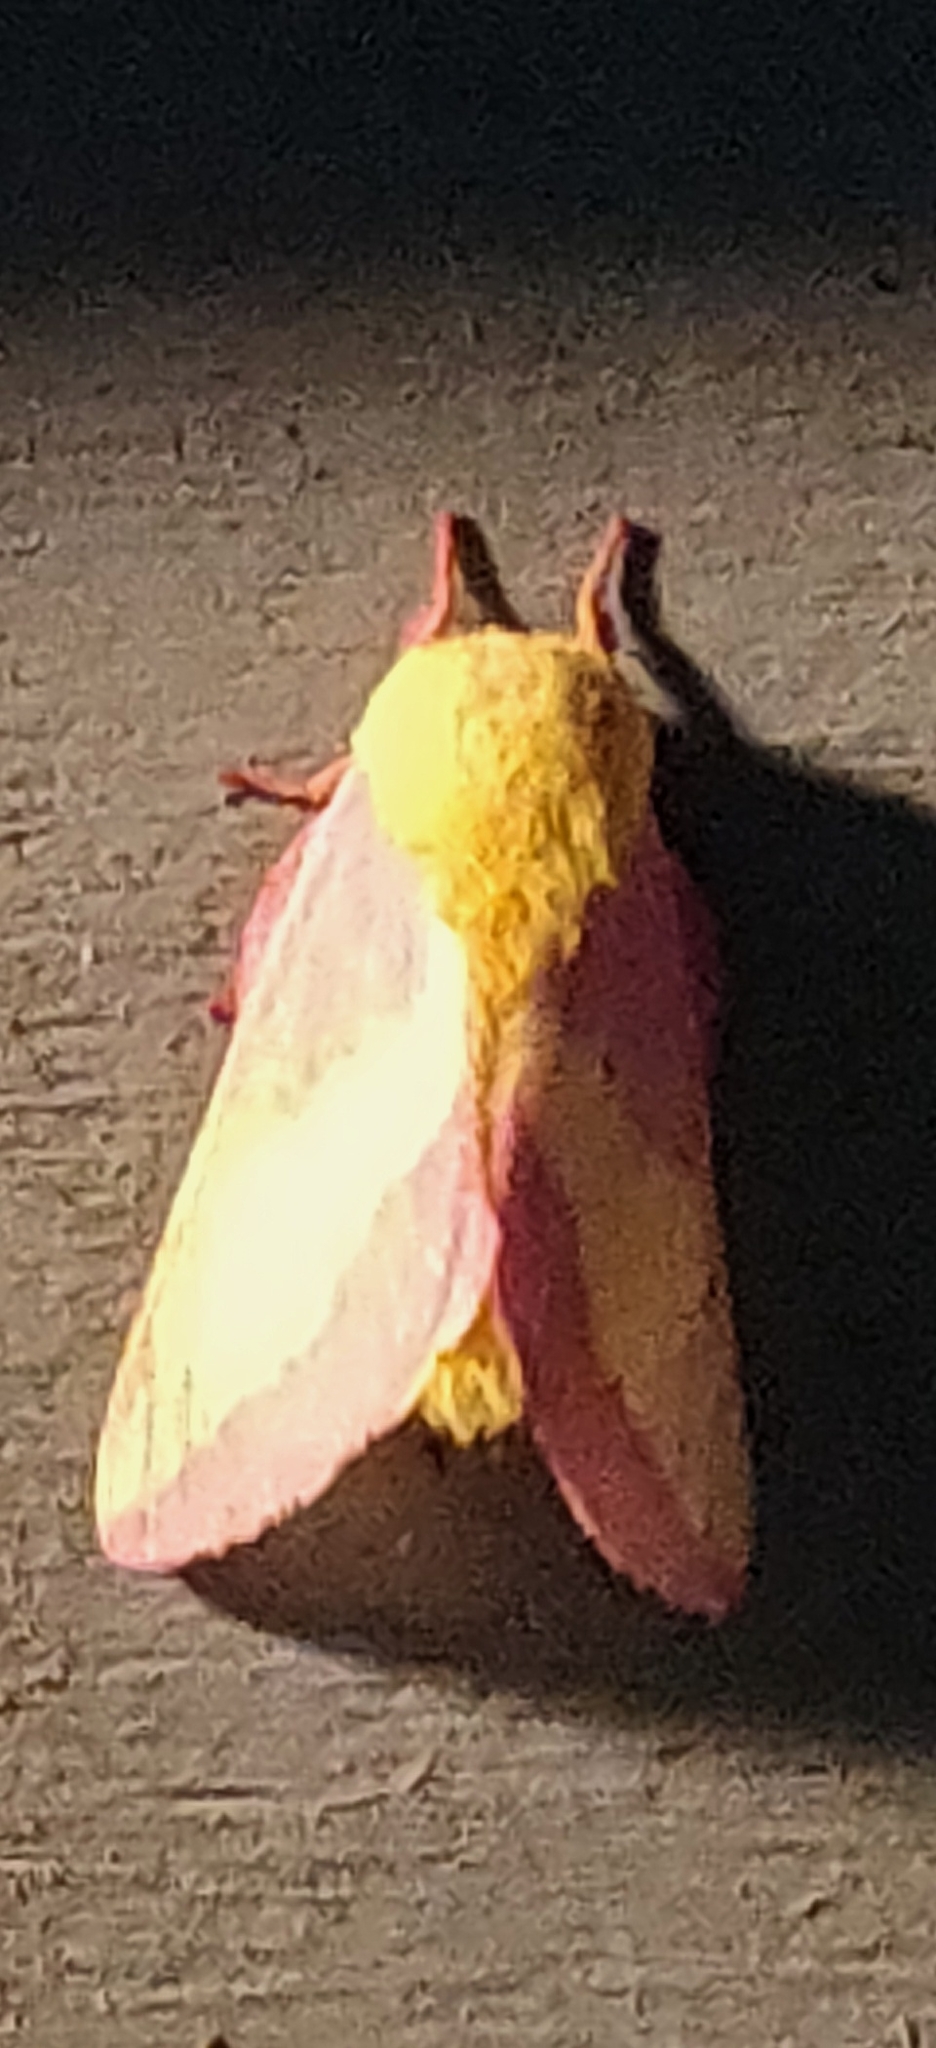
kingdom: Animalia
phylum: Arthropoda
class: Insecta
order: Lepidoptera
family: Saturniidae
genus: Dryocampa
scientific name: Dryocampa rubicunda
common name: Rosy maple moth
